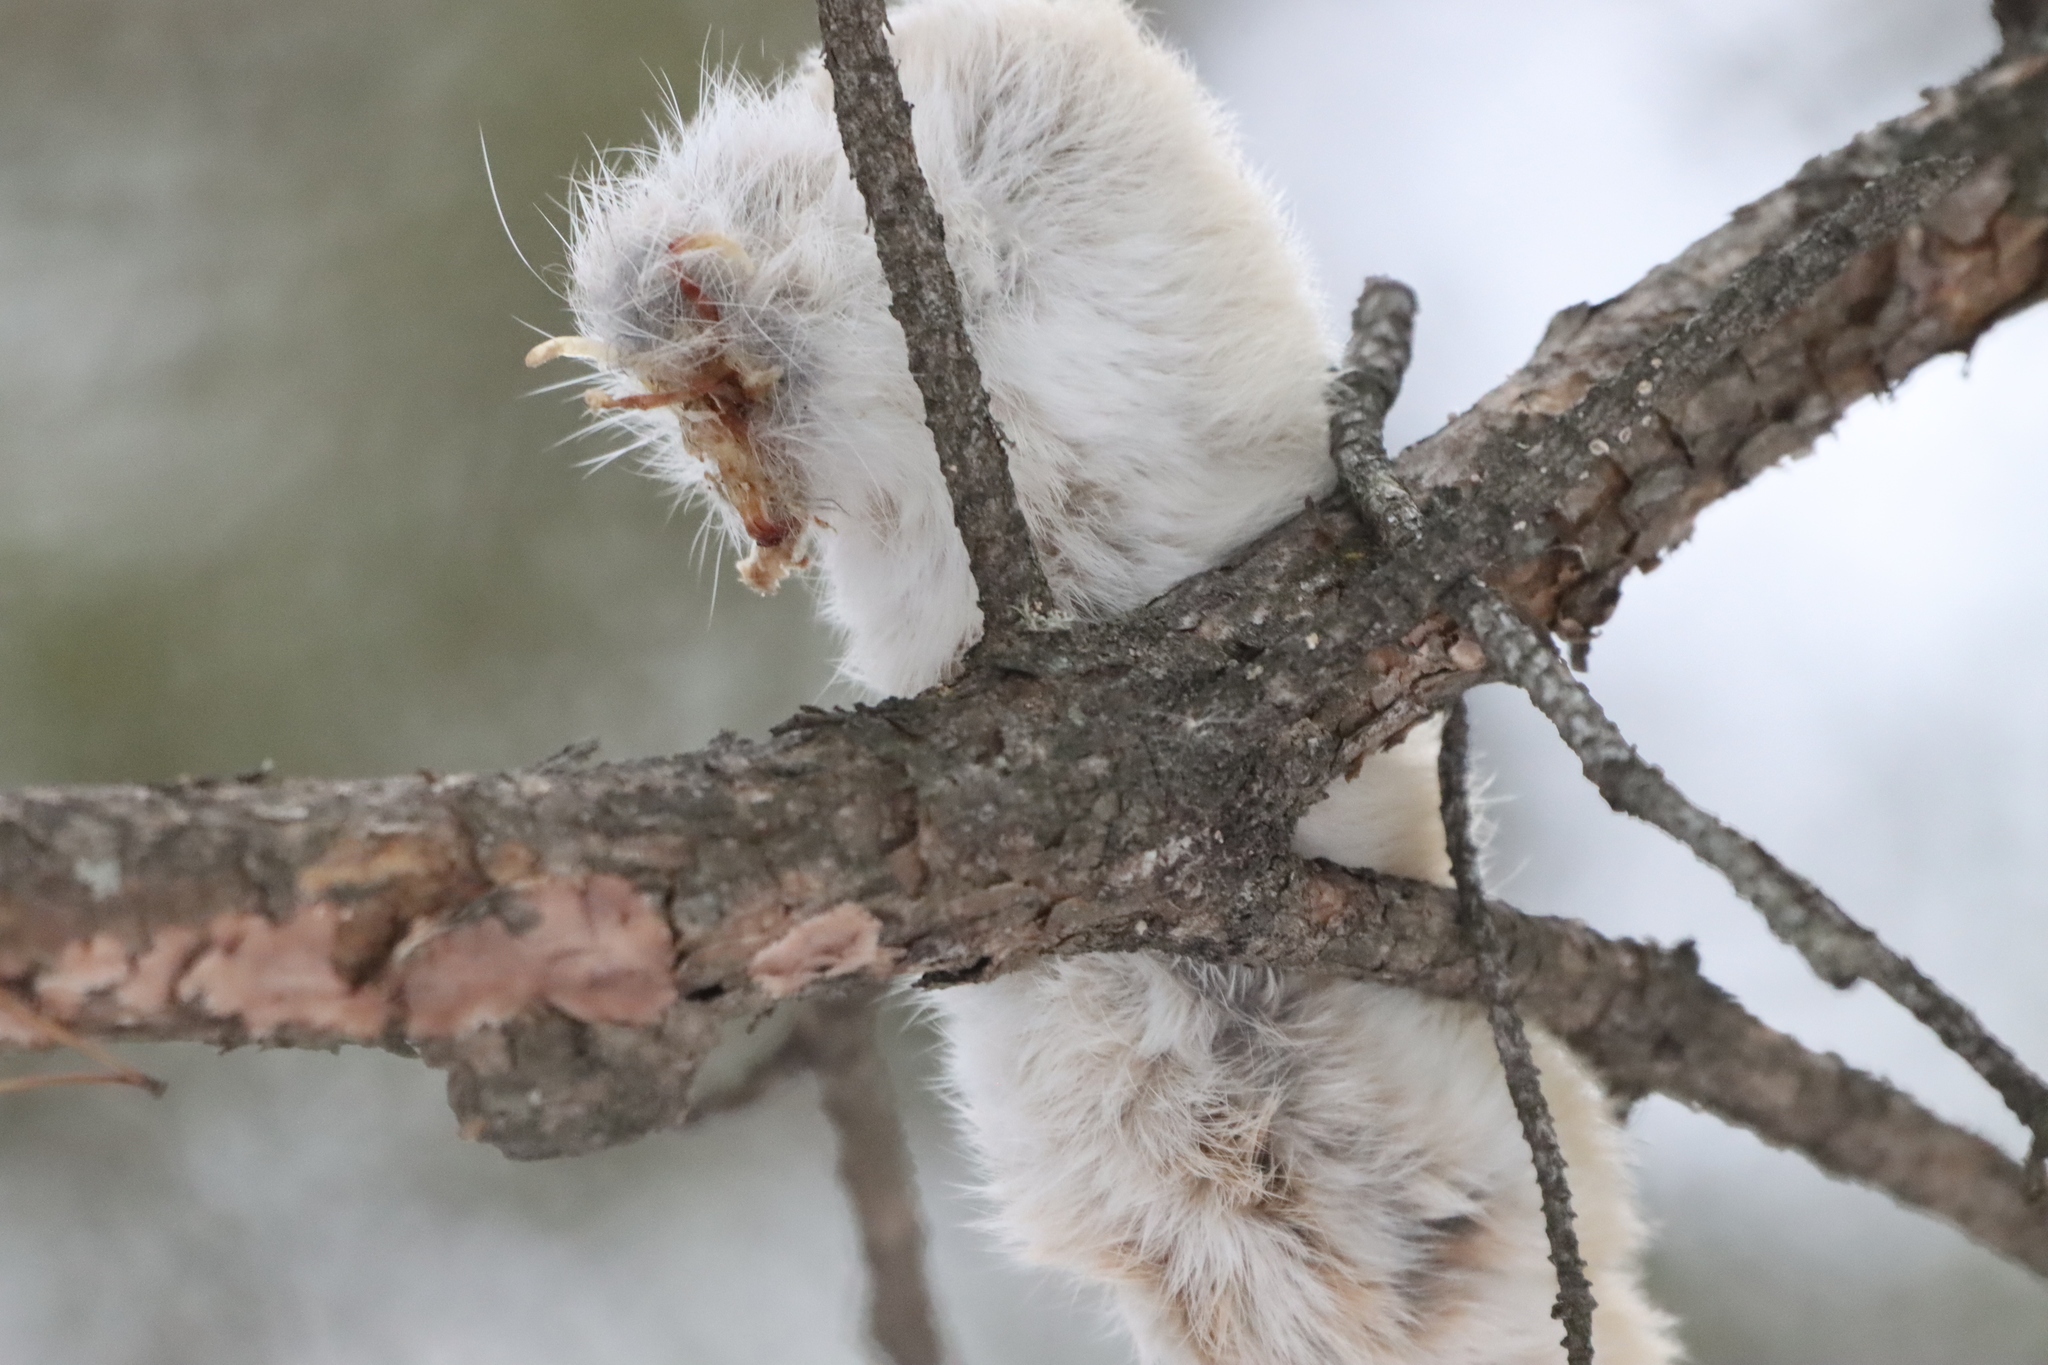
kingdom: Animalia
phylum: Chordata
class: Mammalia
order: Lagomorpha
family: Leporidae
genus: Lepus
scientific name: Lepus americanus
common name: Snowshoe hare
